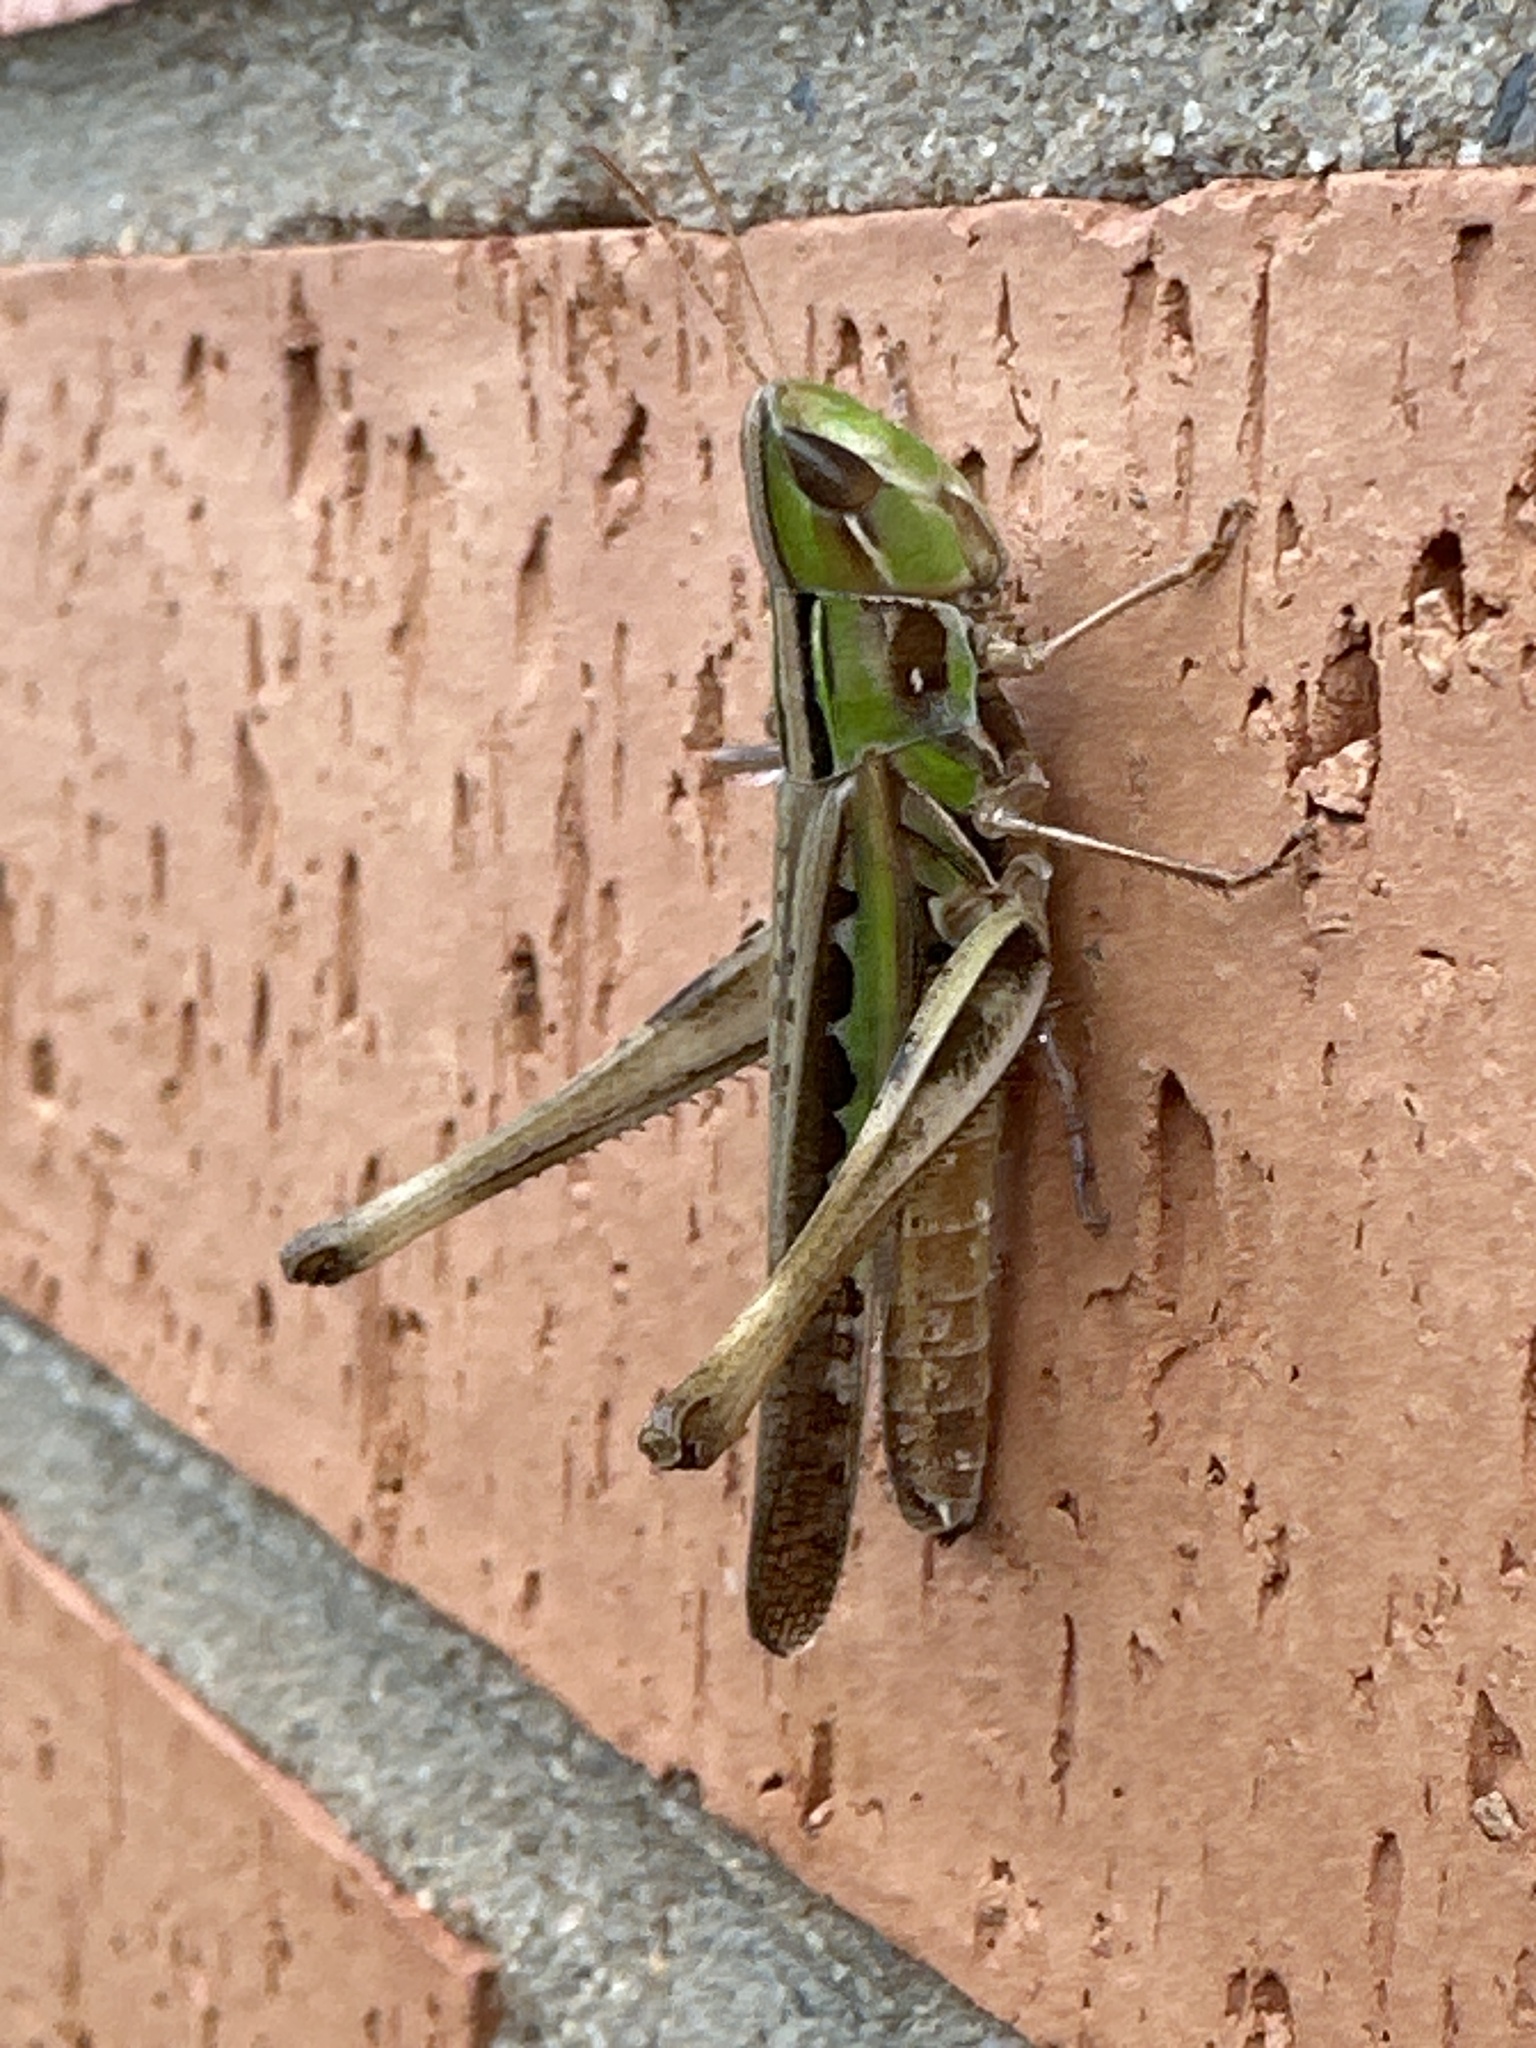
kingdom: Animalia
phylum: Arthropoda
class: Insecta
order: Orthoptera
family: Acrididae
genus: Syrbula
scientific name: Syrbula admirabilis
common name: Handsome grasshopper
